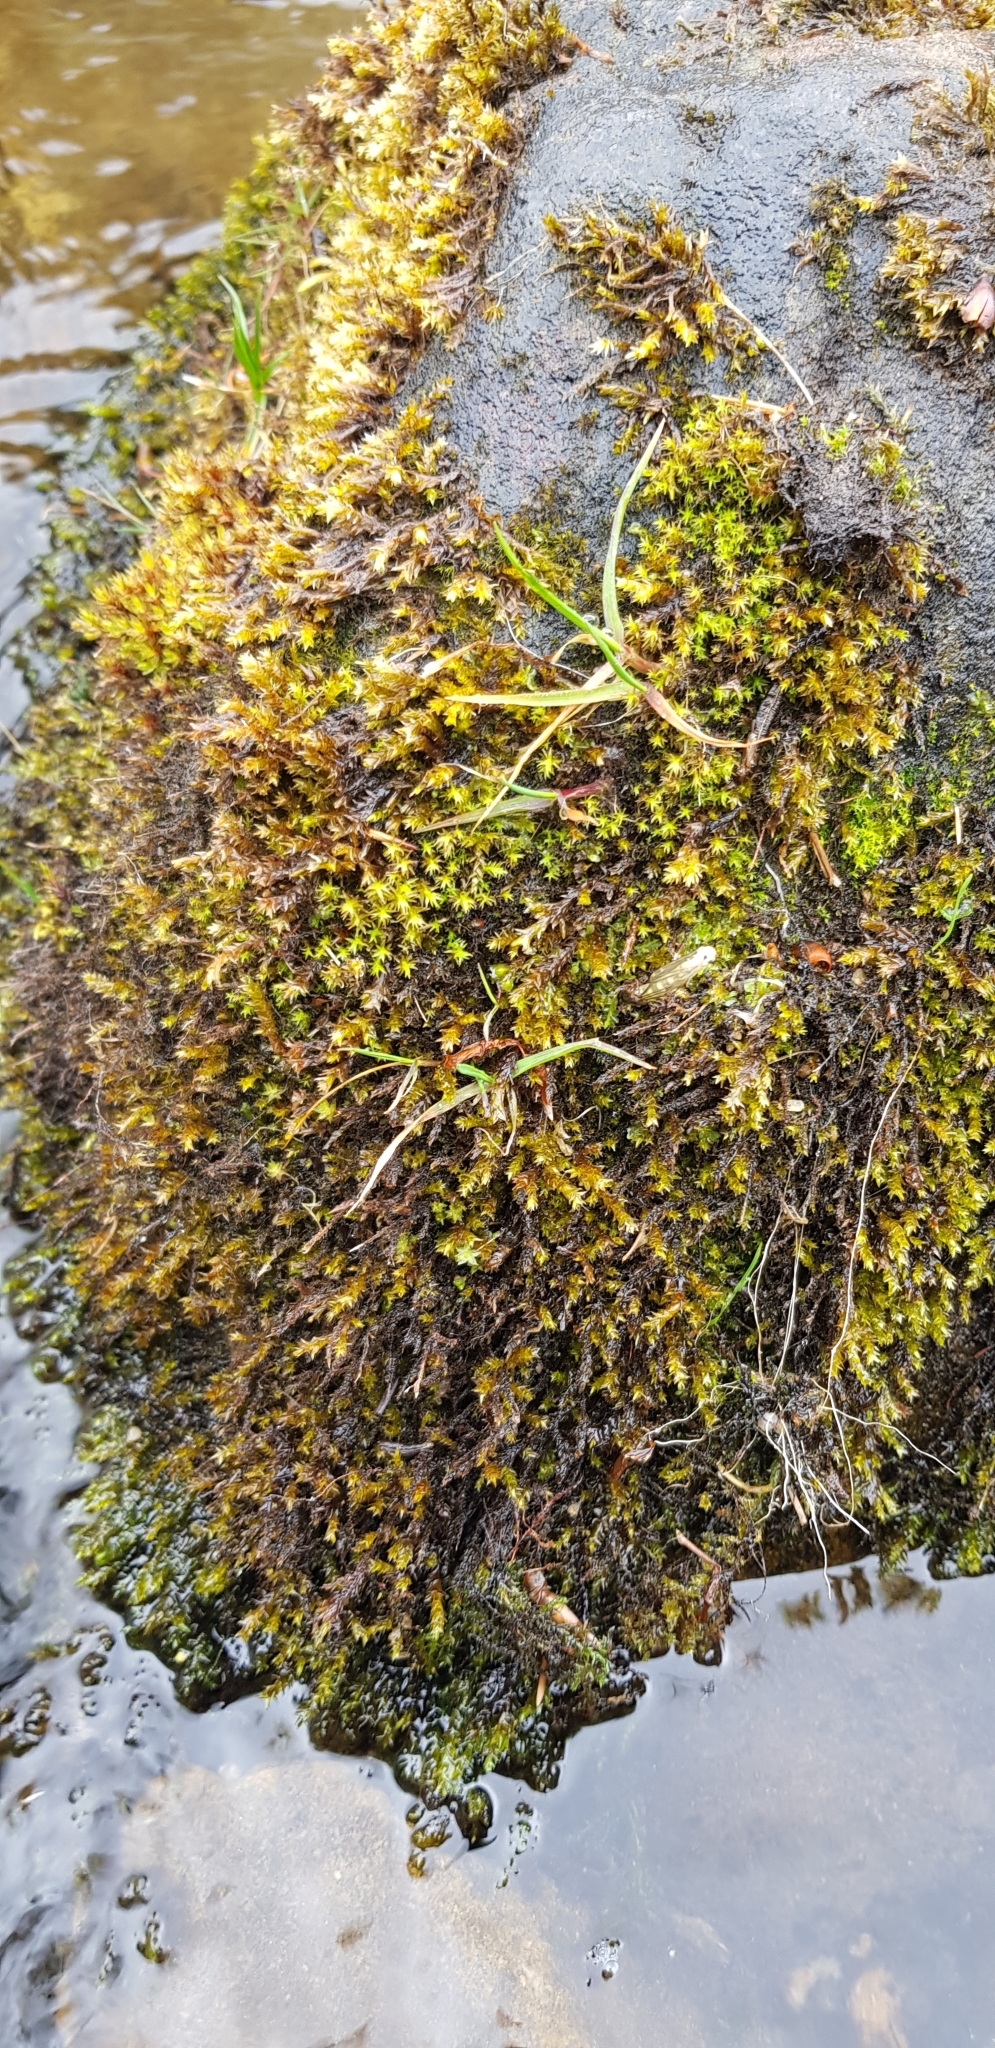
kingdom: Plantae
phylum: Bryophyta
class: Bryopsida
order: Hypnales
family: Brachytheciaceae
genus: Rhynchostegium
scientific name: Rhynchostegium riparioides
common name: Platyhypnidium moss
